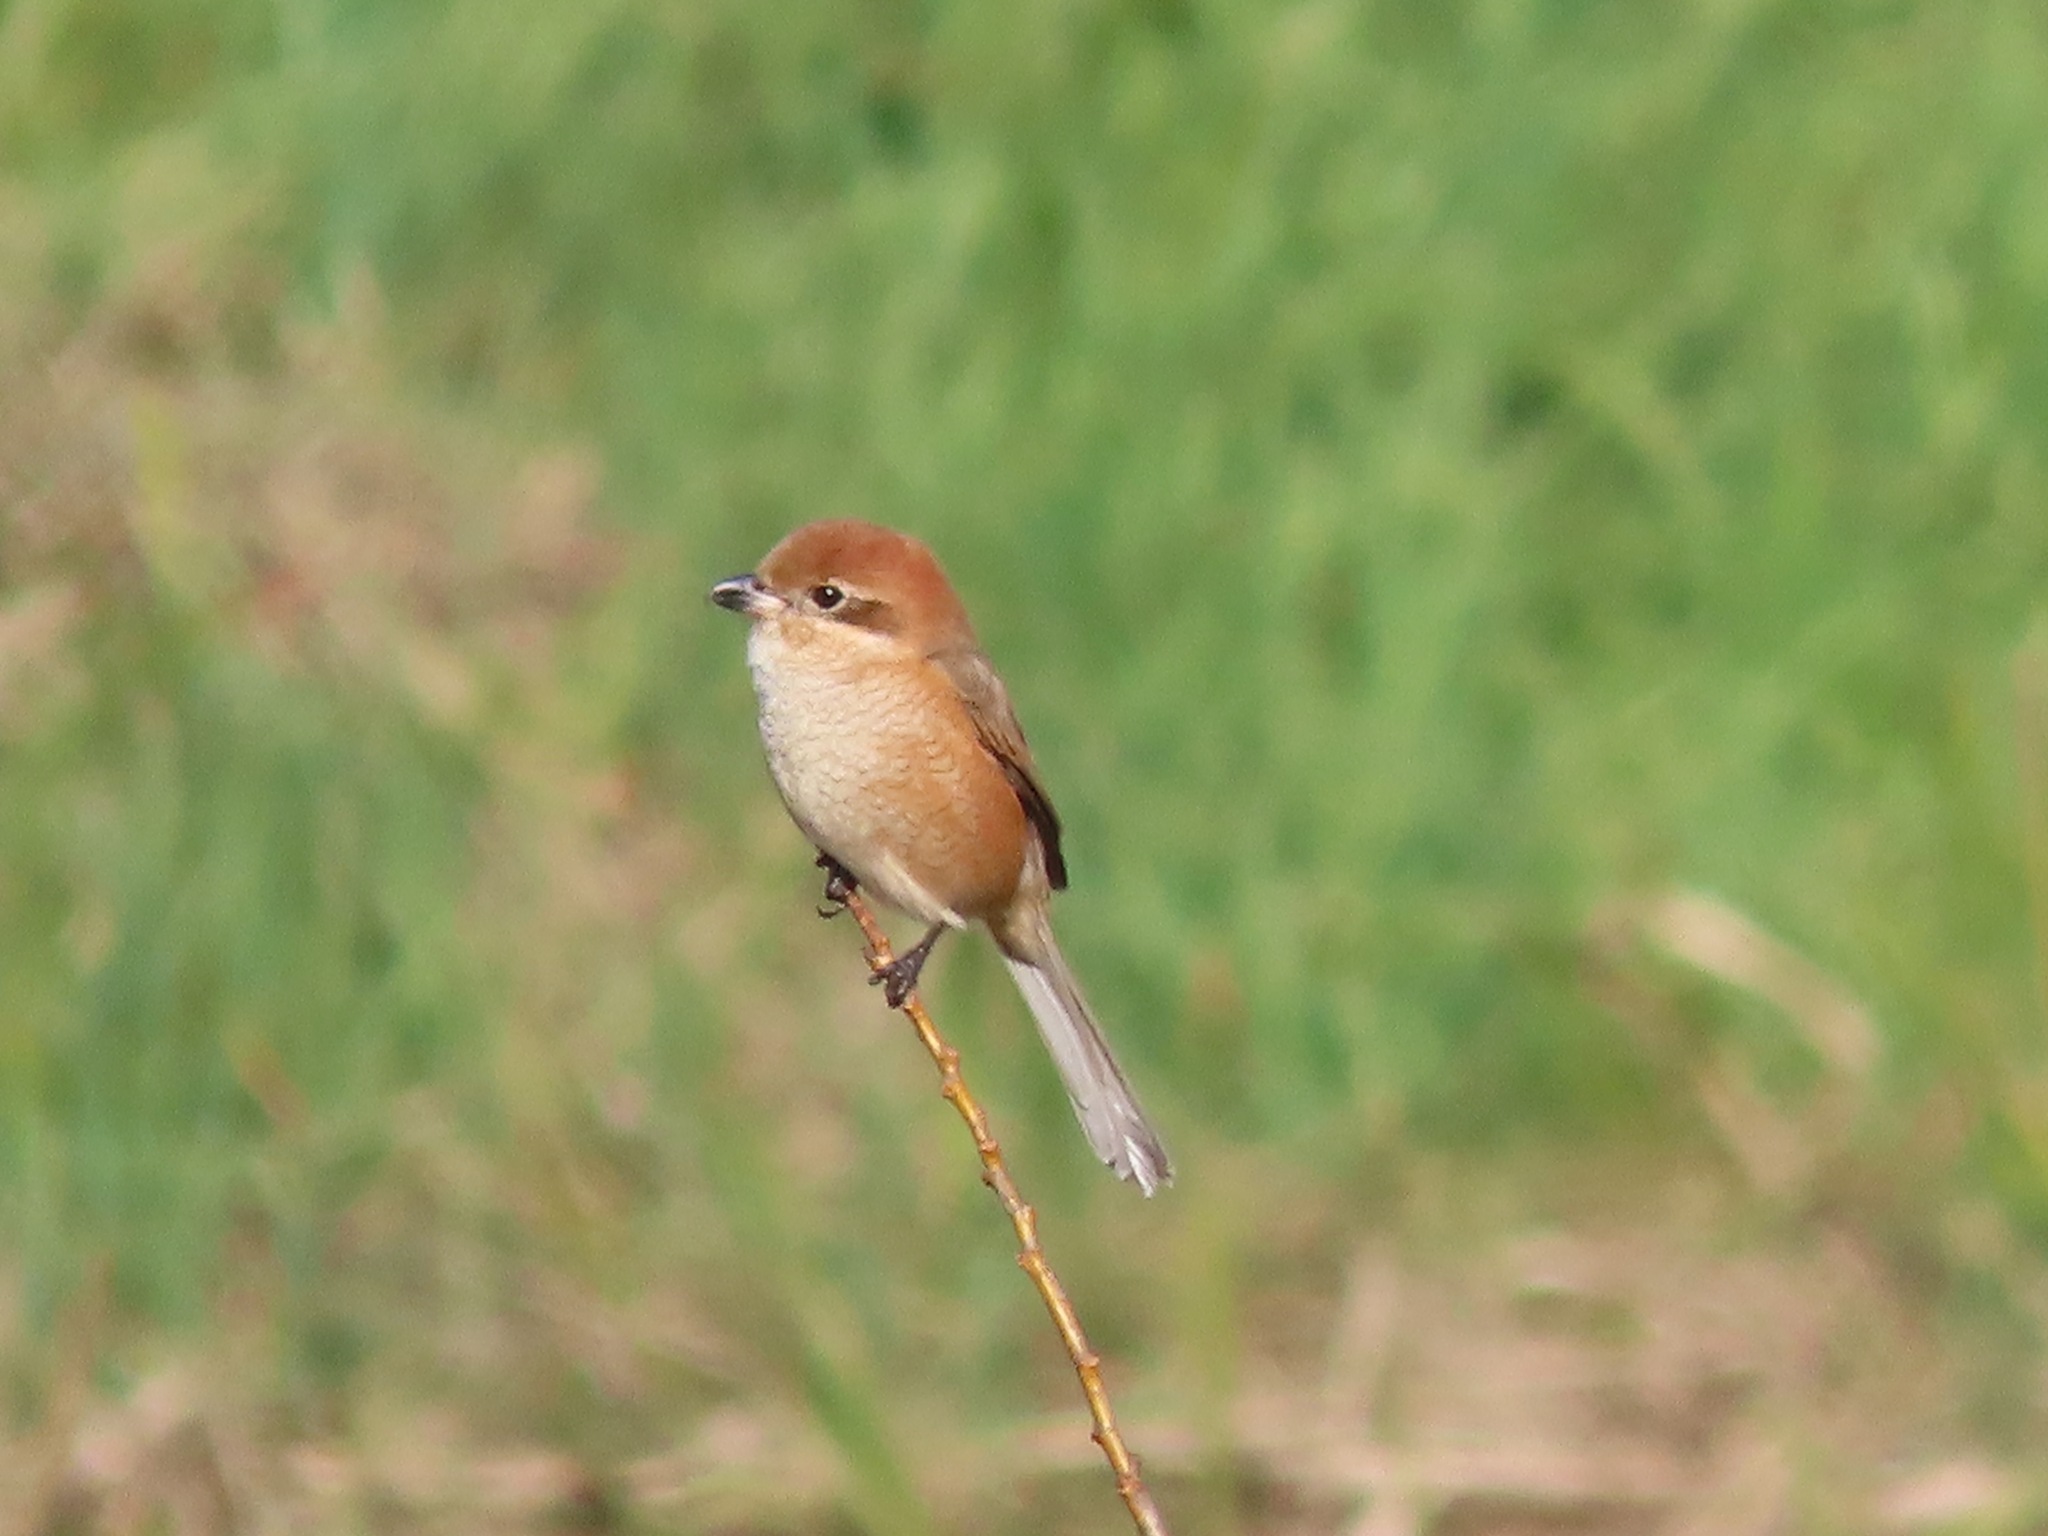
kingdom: Animalia
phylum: Chordata
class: Aves
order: Passeriformes
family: Laniidae
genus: Lanius
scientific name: Lanius bucephalus
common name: Bull-headed shrike
